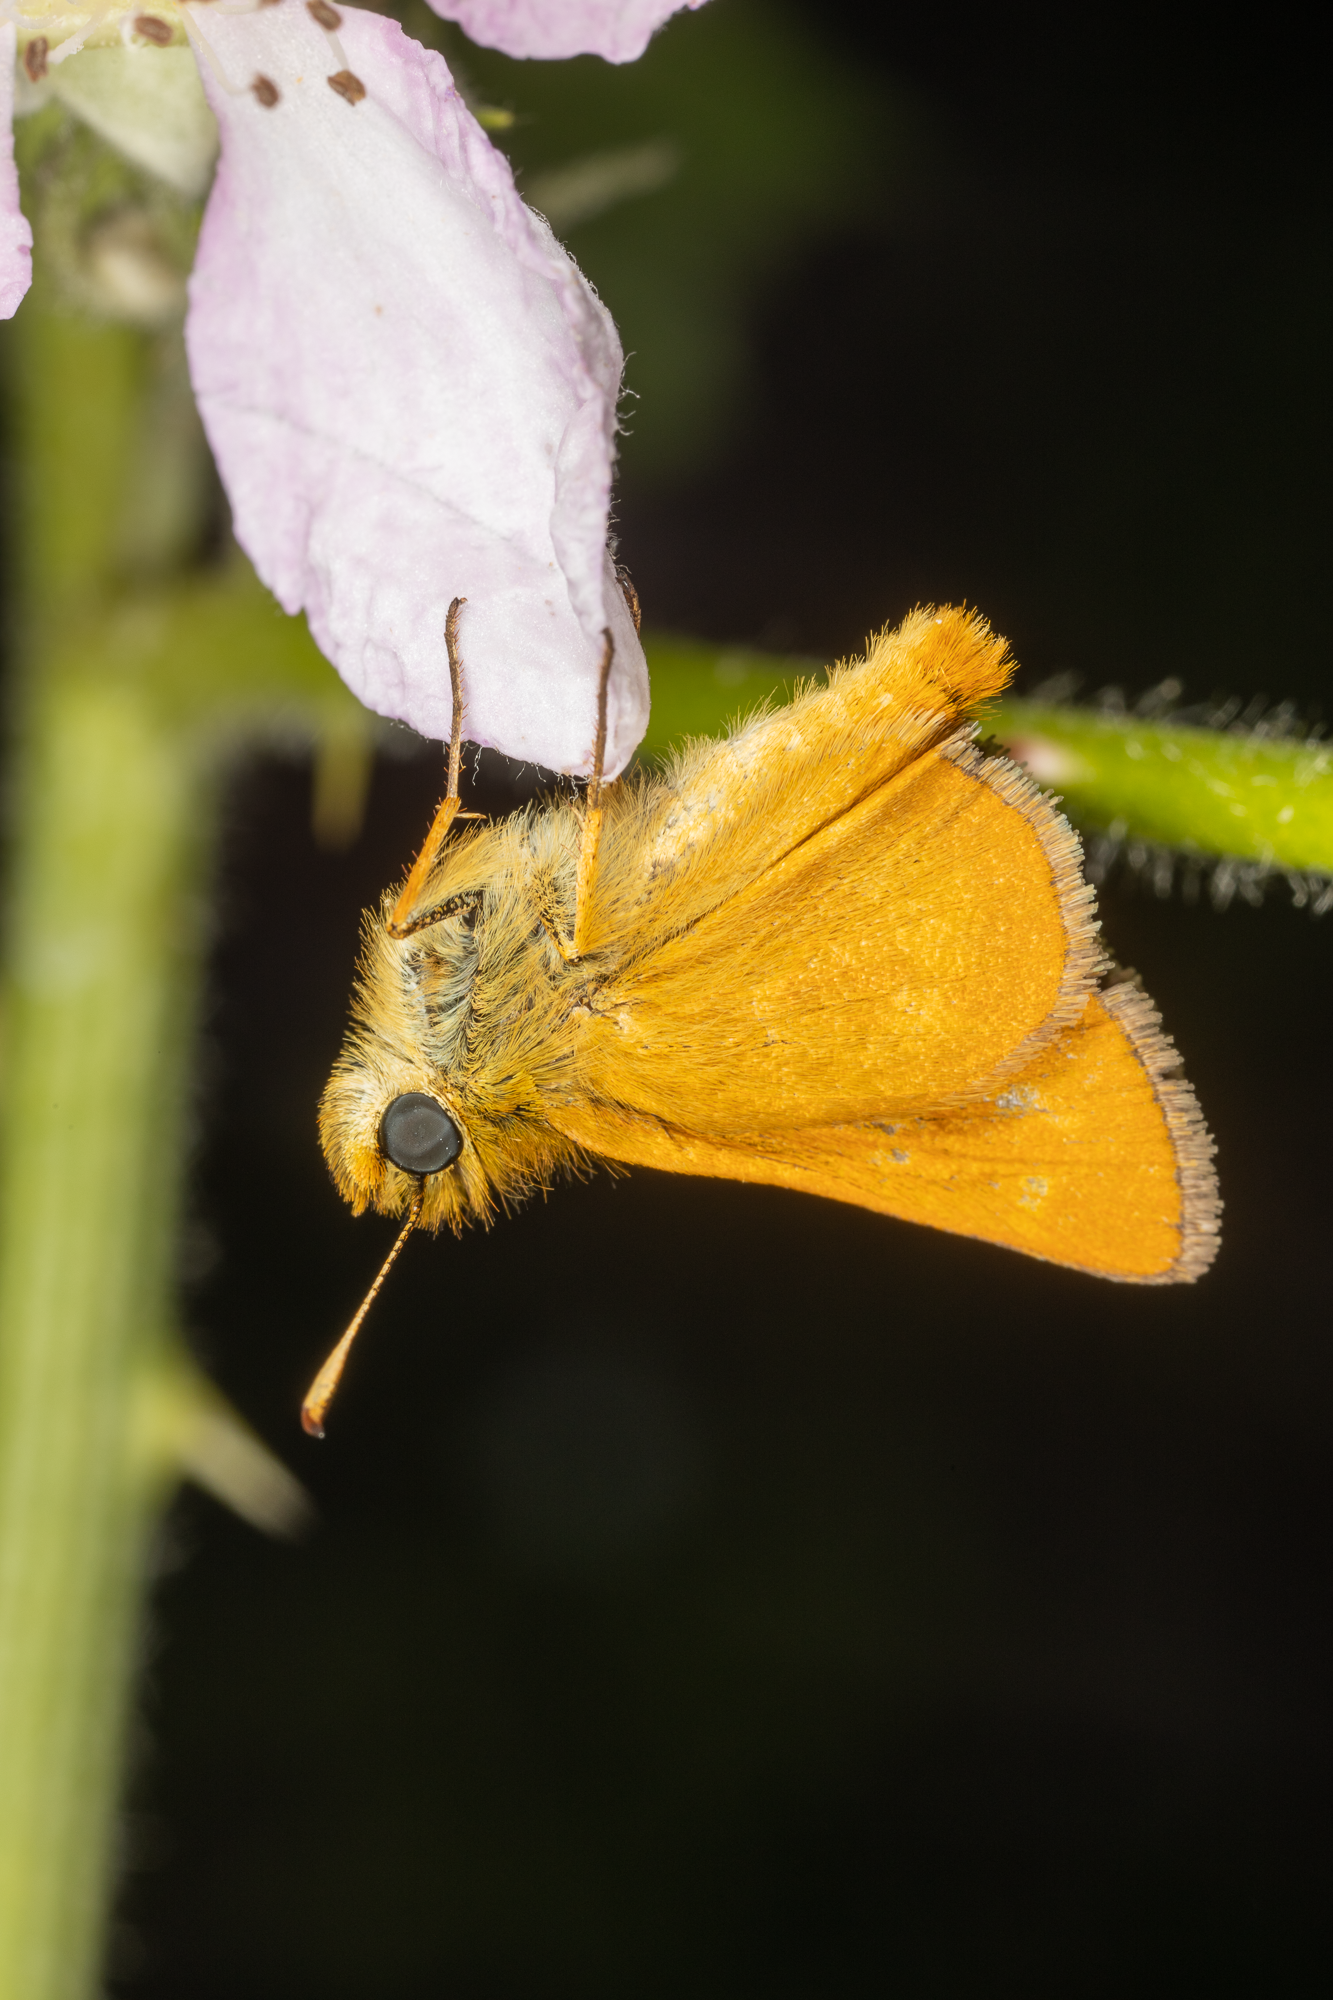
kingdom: Animalia
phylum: Arthropoda
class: Insecta
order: Lepidoptera
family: Hesperiidae
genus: Ochlodes
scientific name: Ochlodes agricola
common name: Rural skipper
